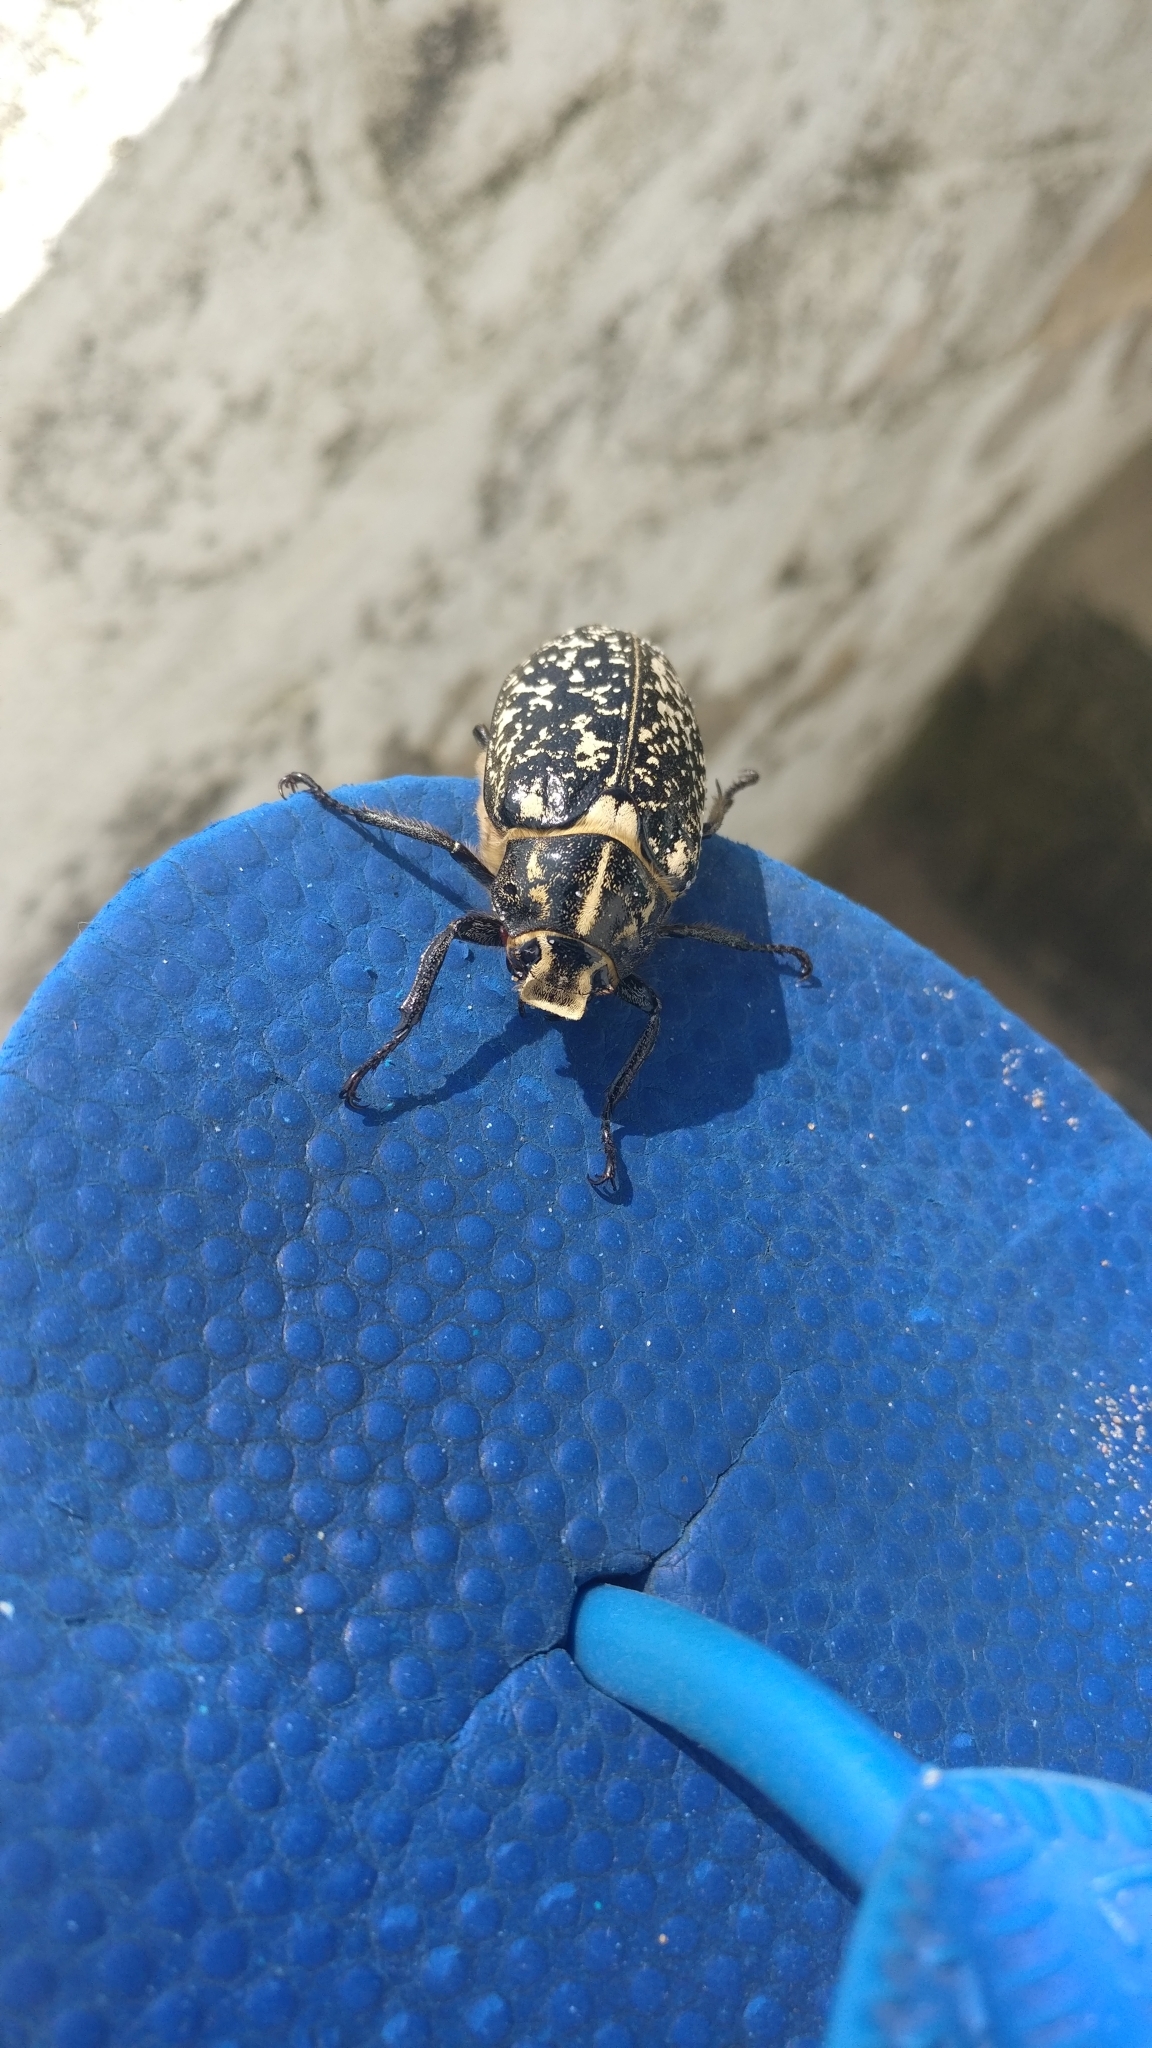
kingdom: Animalia
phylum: Arthropoda
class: Insecta
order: Coleoptera
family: Scarabaeidae
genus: Polyphylla
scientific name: Polyphylla fullo
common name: Pine chafer
